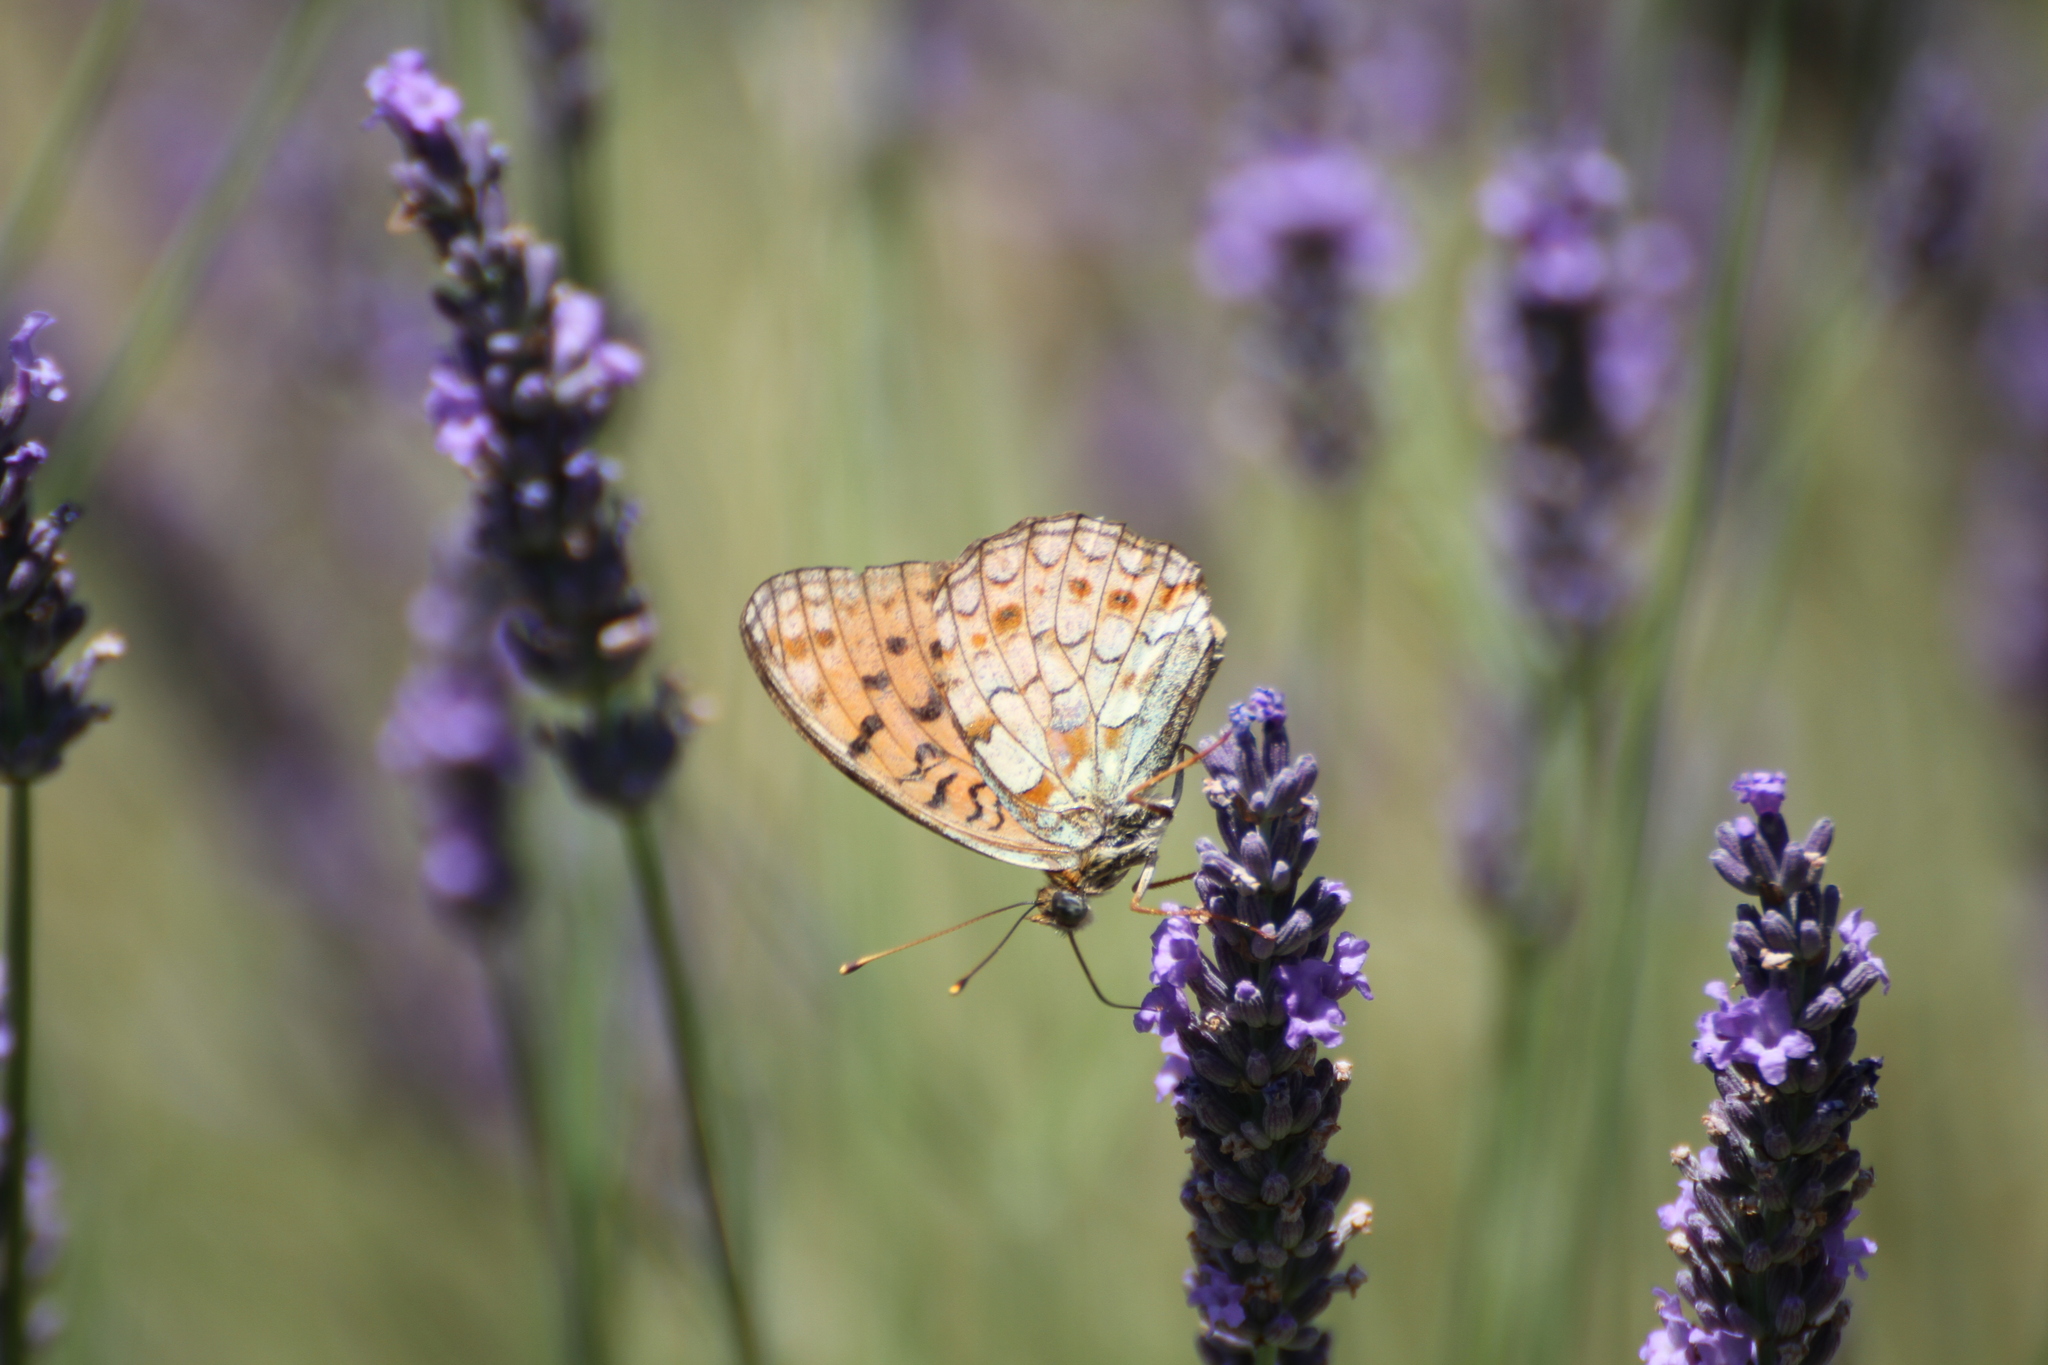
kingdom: Animalia
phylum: Arthropoda
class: Insecta
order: Lepidoptera
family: Nymphalidae
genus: Fabriciana
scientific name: Fabriciana niobe
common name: Niobe fritillary
